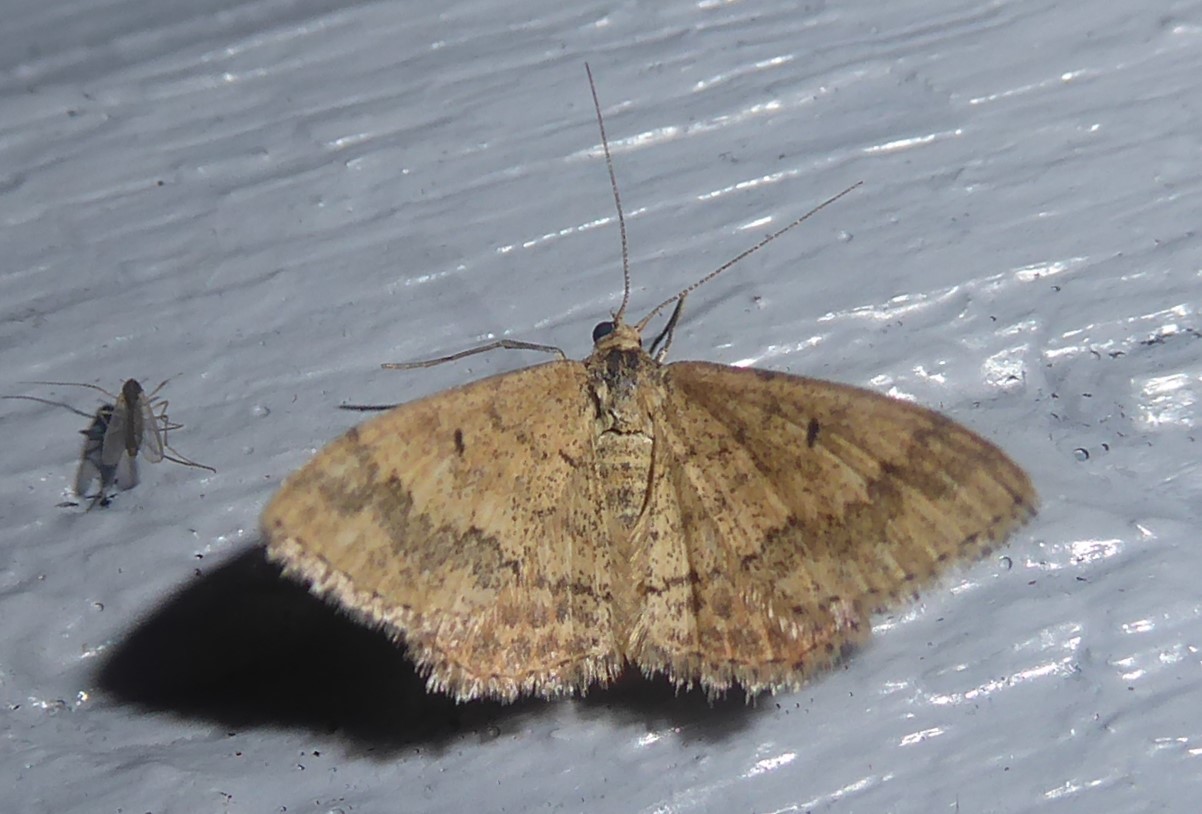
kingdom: Animalia
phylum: Arthropoda
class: Insecta
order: Lepidoptera
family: Geometridae
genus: Scopula
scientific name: Scopula rubraria
